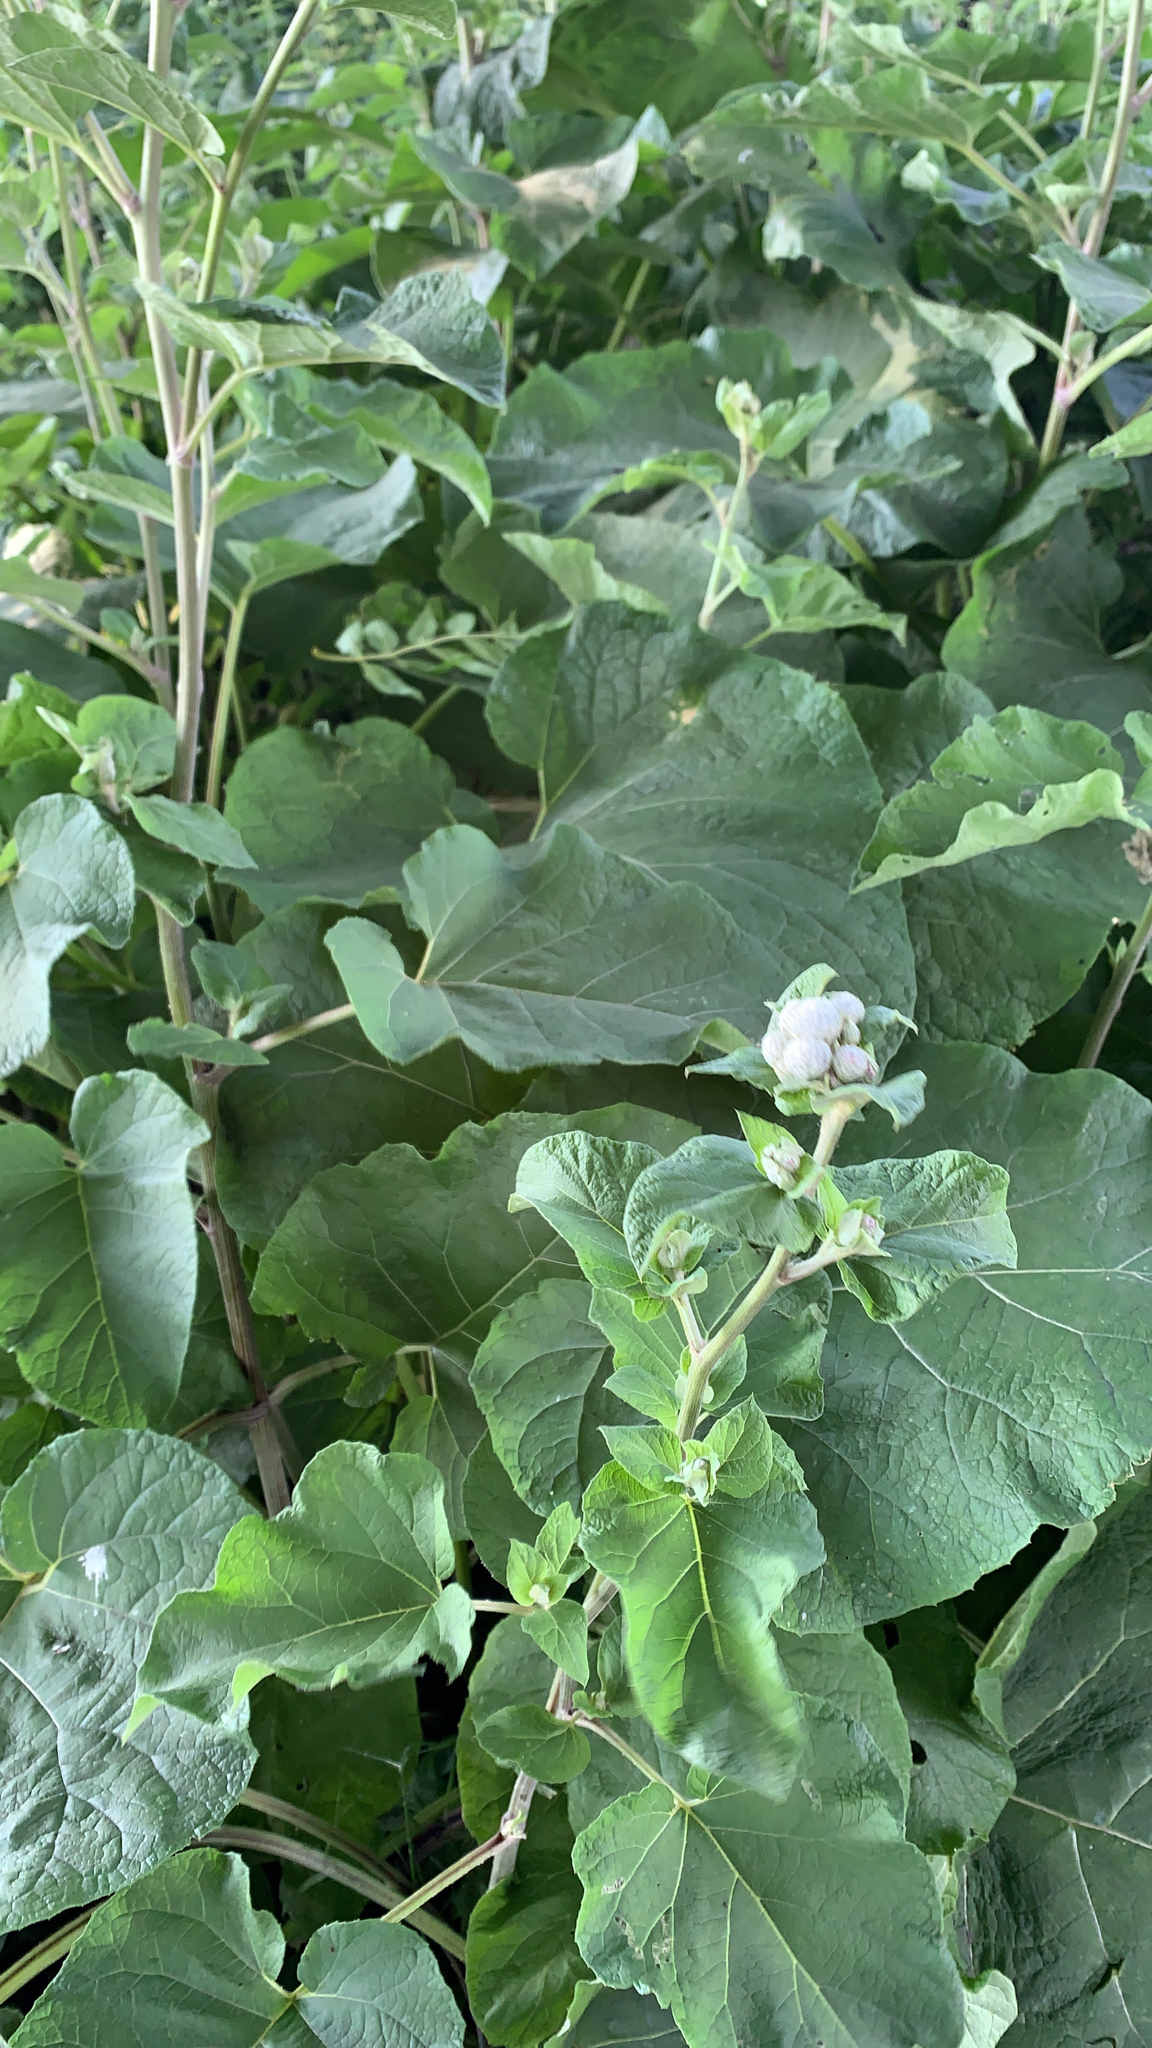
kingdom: Plantae
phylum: Tracheophyta
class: Magnoliopsida
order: Asterales
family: Asteraceae
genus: Arctium
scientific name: Arctium tomentosum
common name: Woolly burdock
